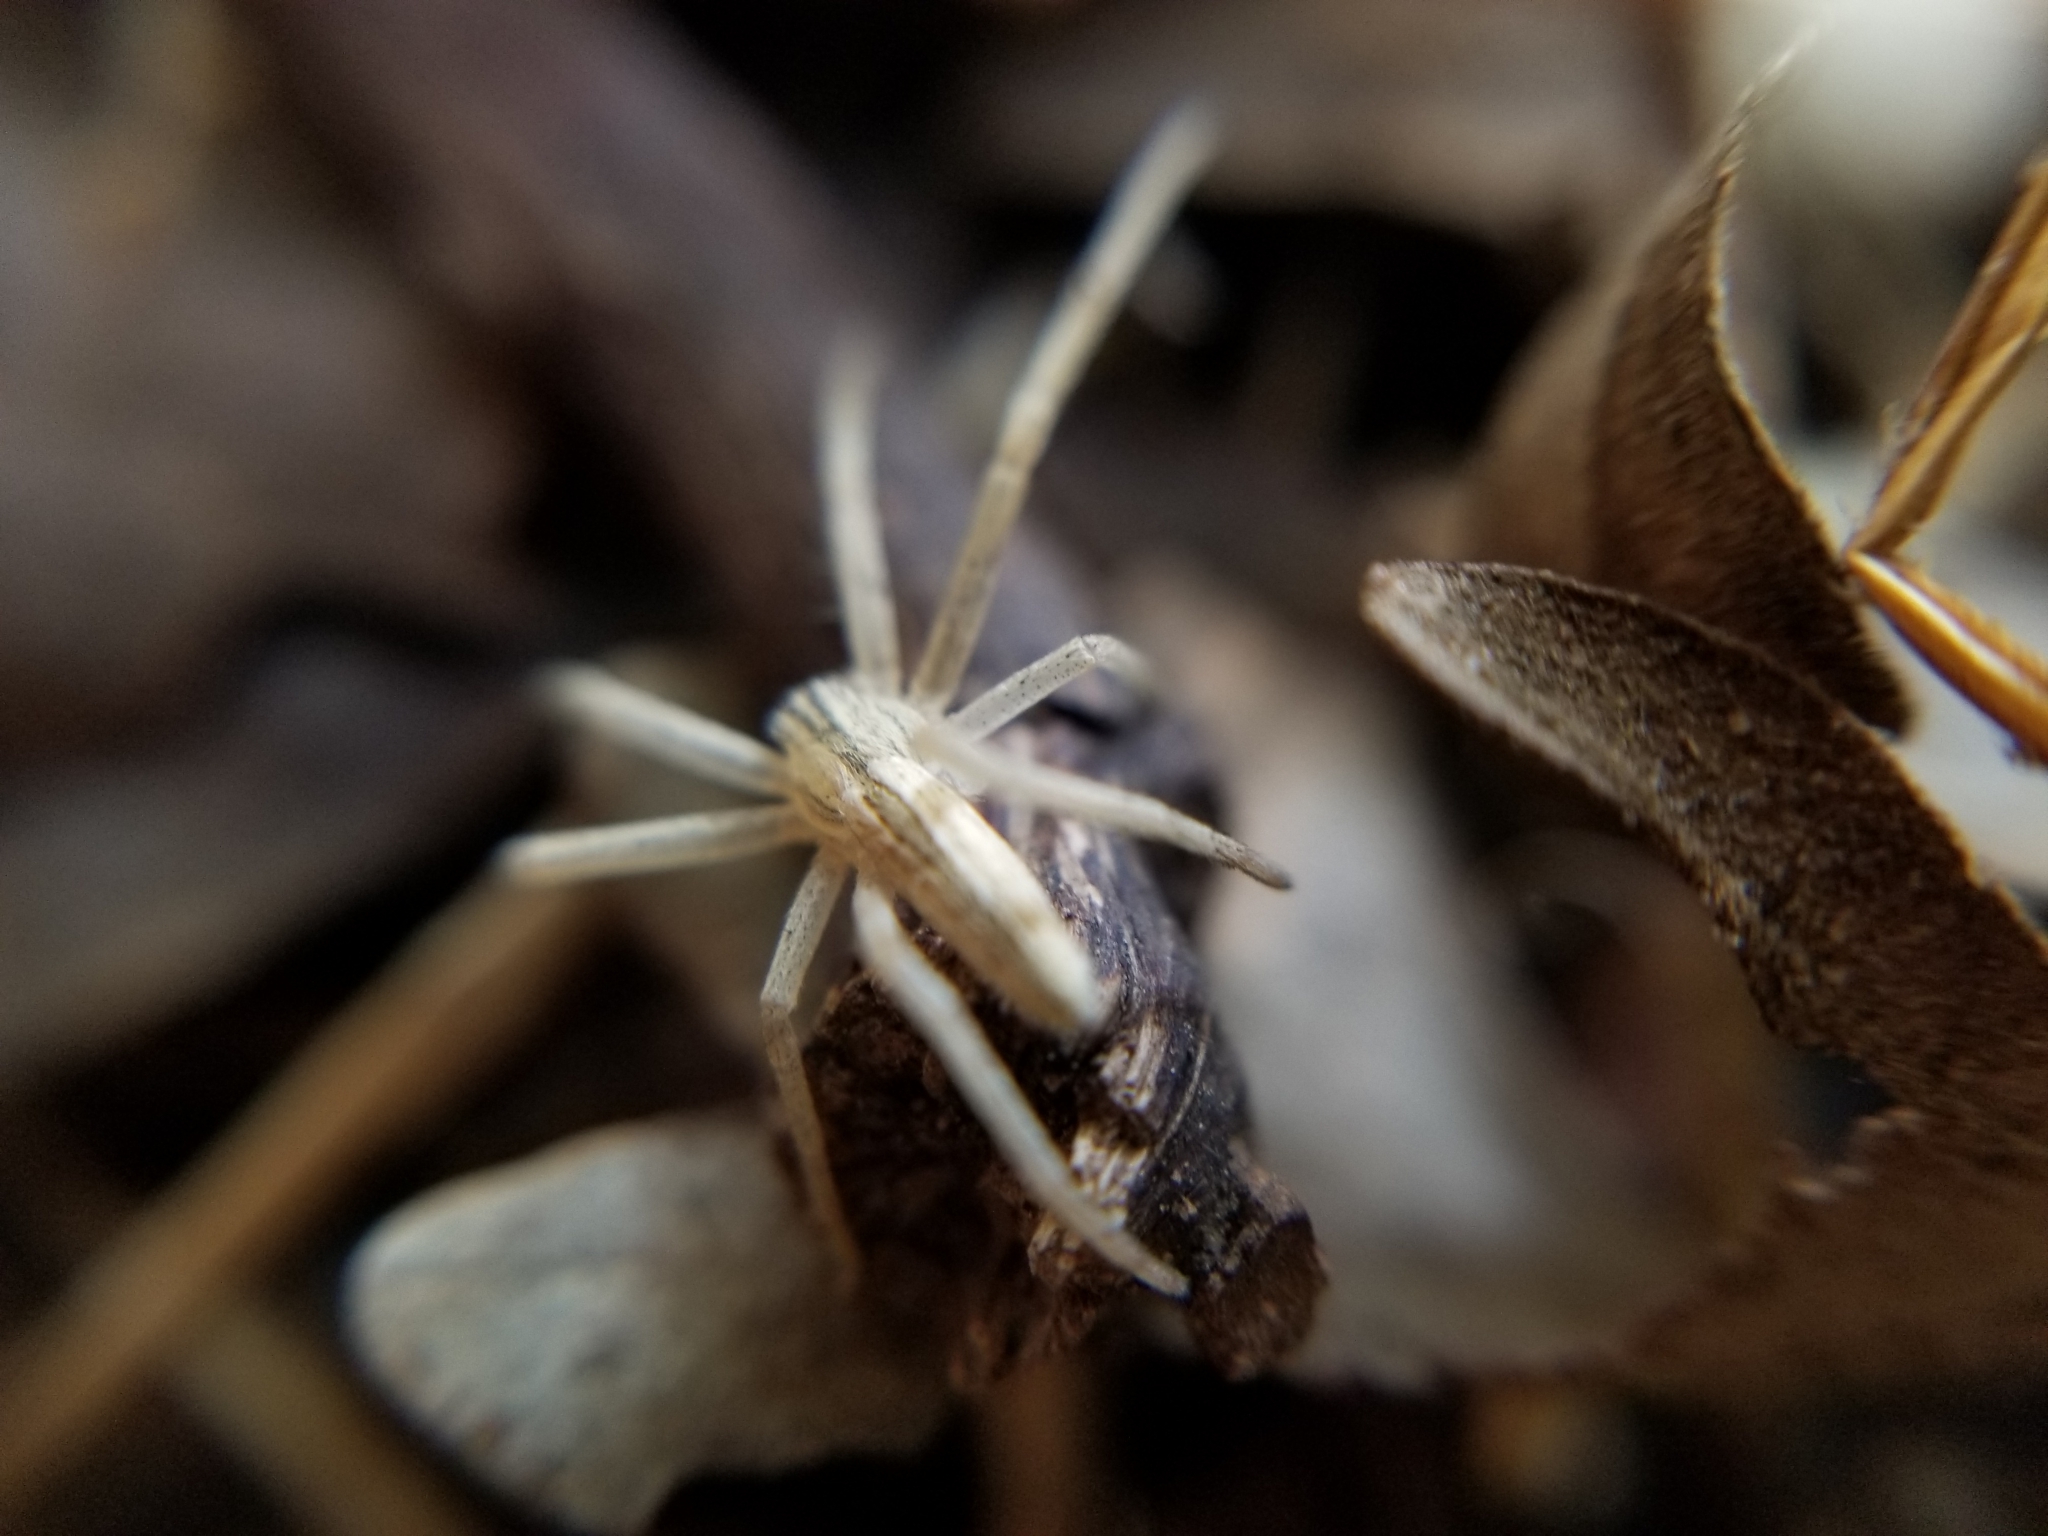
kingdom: Animalia
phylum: Arthropoda
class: Arachnida
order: Araneae
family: Philodromidae
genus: Tibellus
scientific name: Tibellus oblongus
